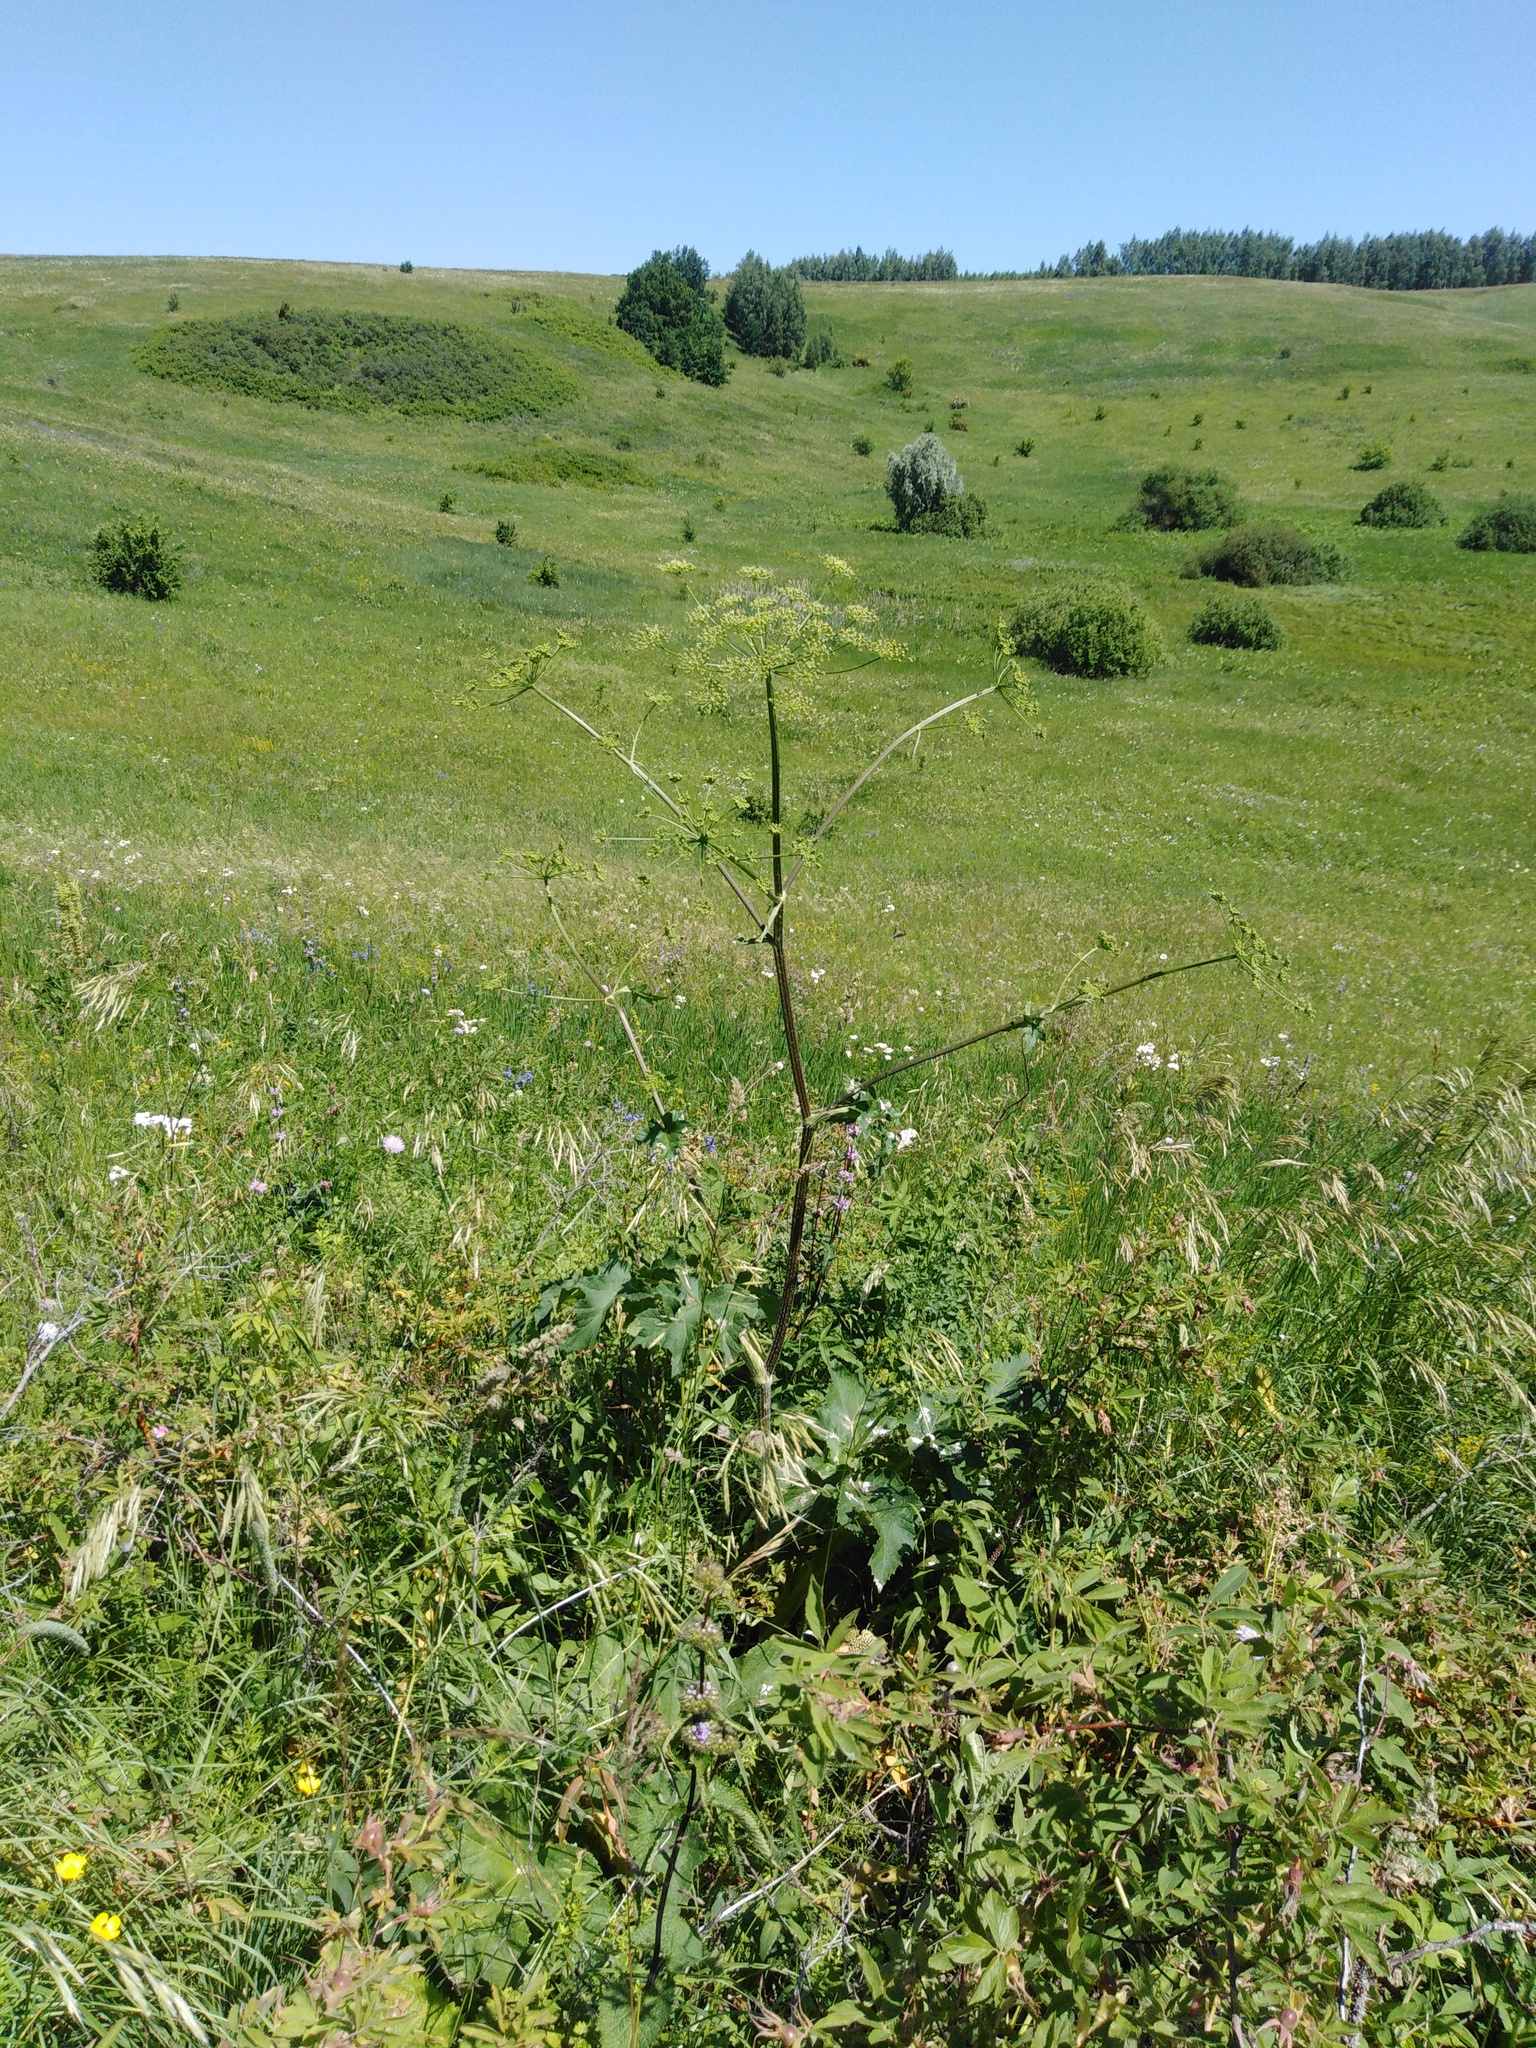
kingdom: Plantae
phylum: Tracheophyta
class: Magnoliopsida
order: Apiales
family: Apiaceae
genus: Heracleum
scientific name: Heracleum sphondylium
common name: Hogweed
